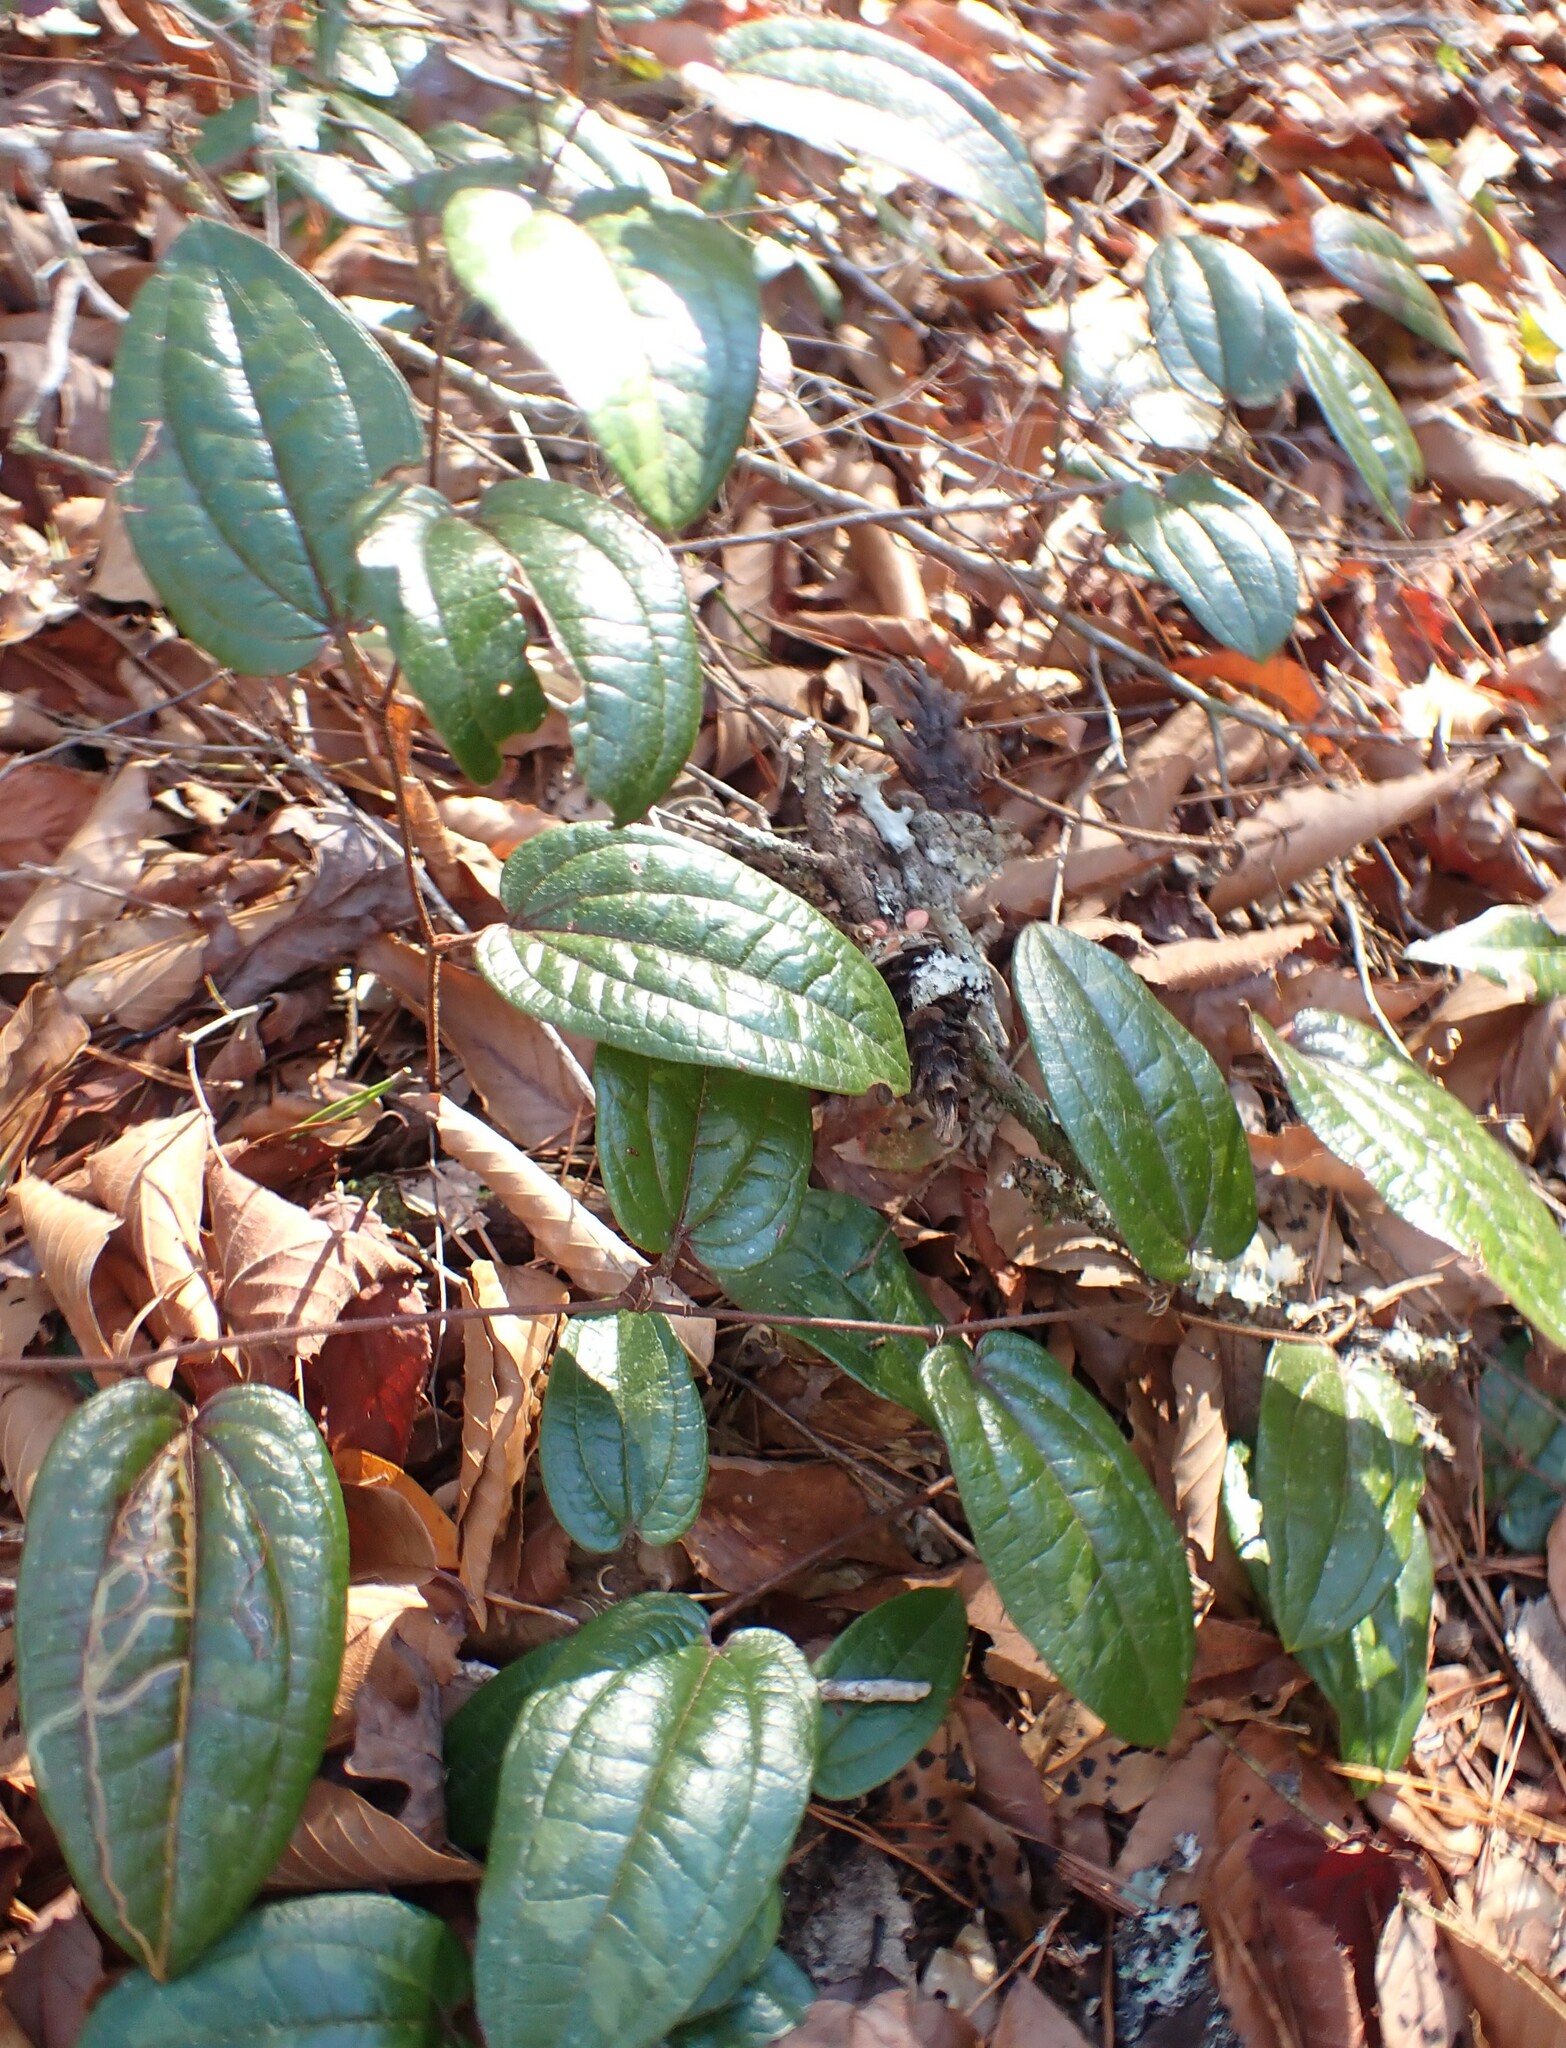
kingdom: Plantae
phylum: Tracheophyta
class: Liliopsida
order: Liliales
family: Smilacaceae
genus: Smilax
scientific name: Smilax pumila
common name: Sarsaparilla-vine
